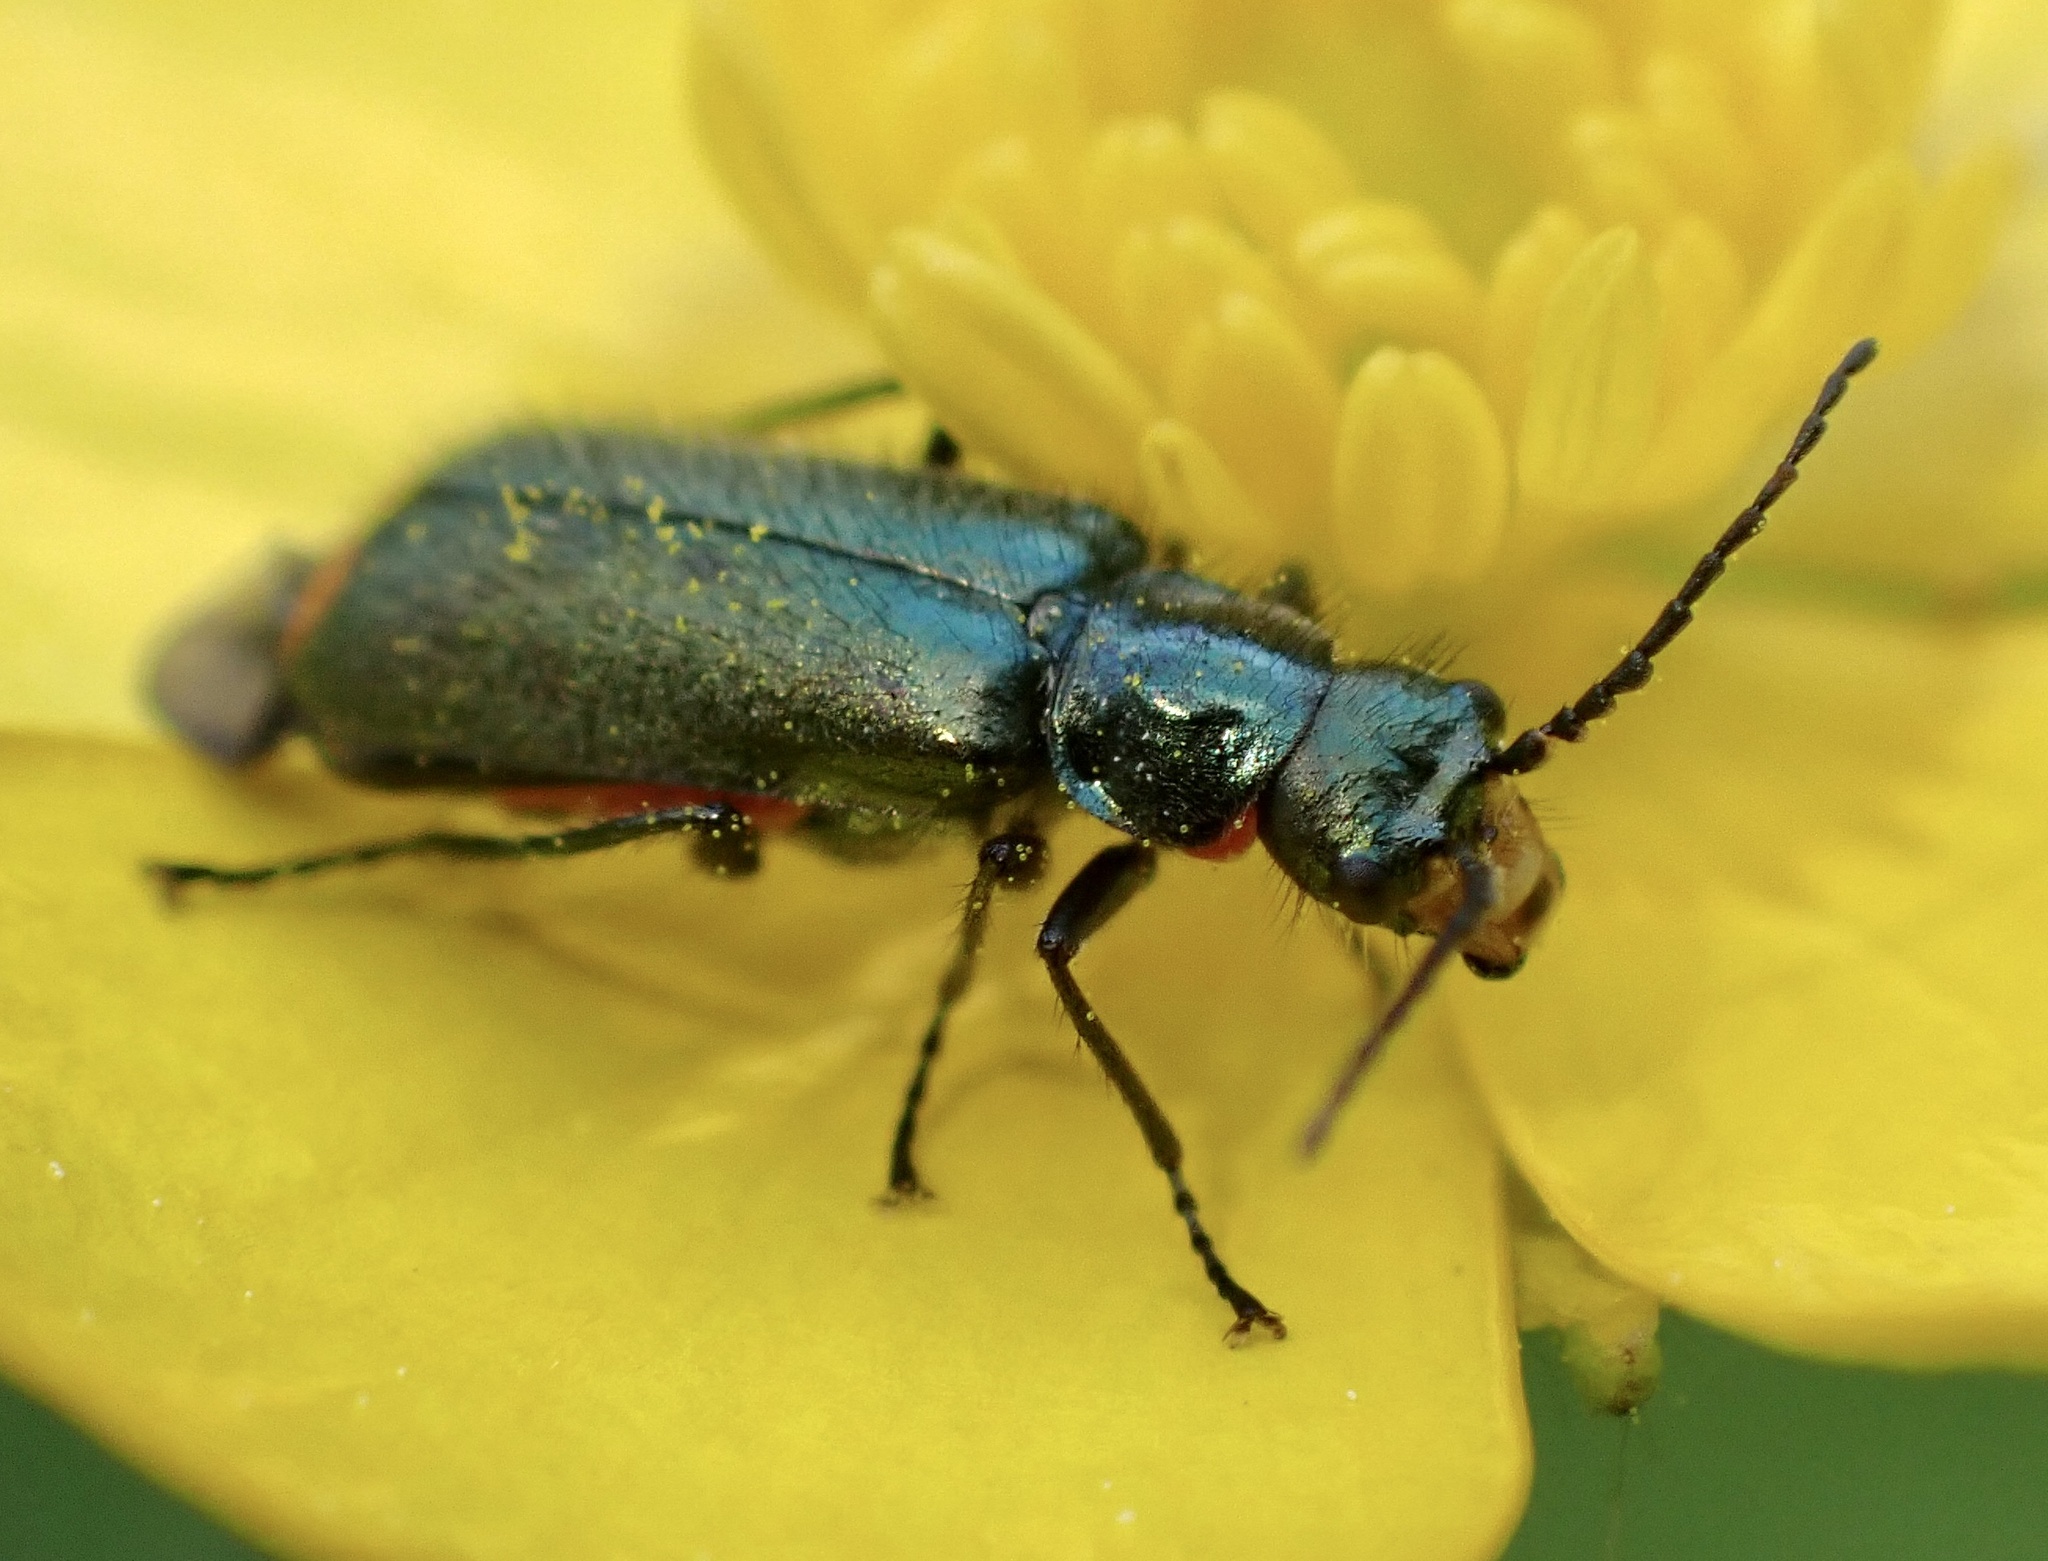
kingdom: Animalia
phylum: Arthropoda
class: Insecta
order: Coleoptera
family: Melyridae
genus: Malachius
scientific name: Malachius bipustulatus
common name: Malachite beetle
